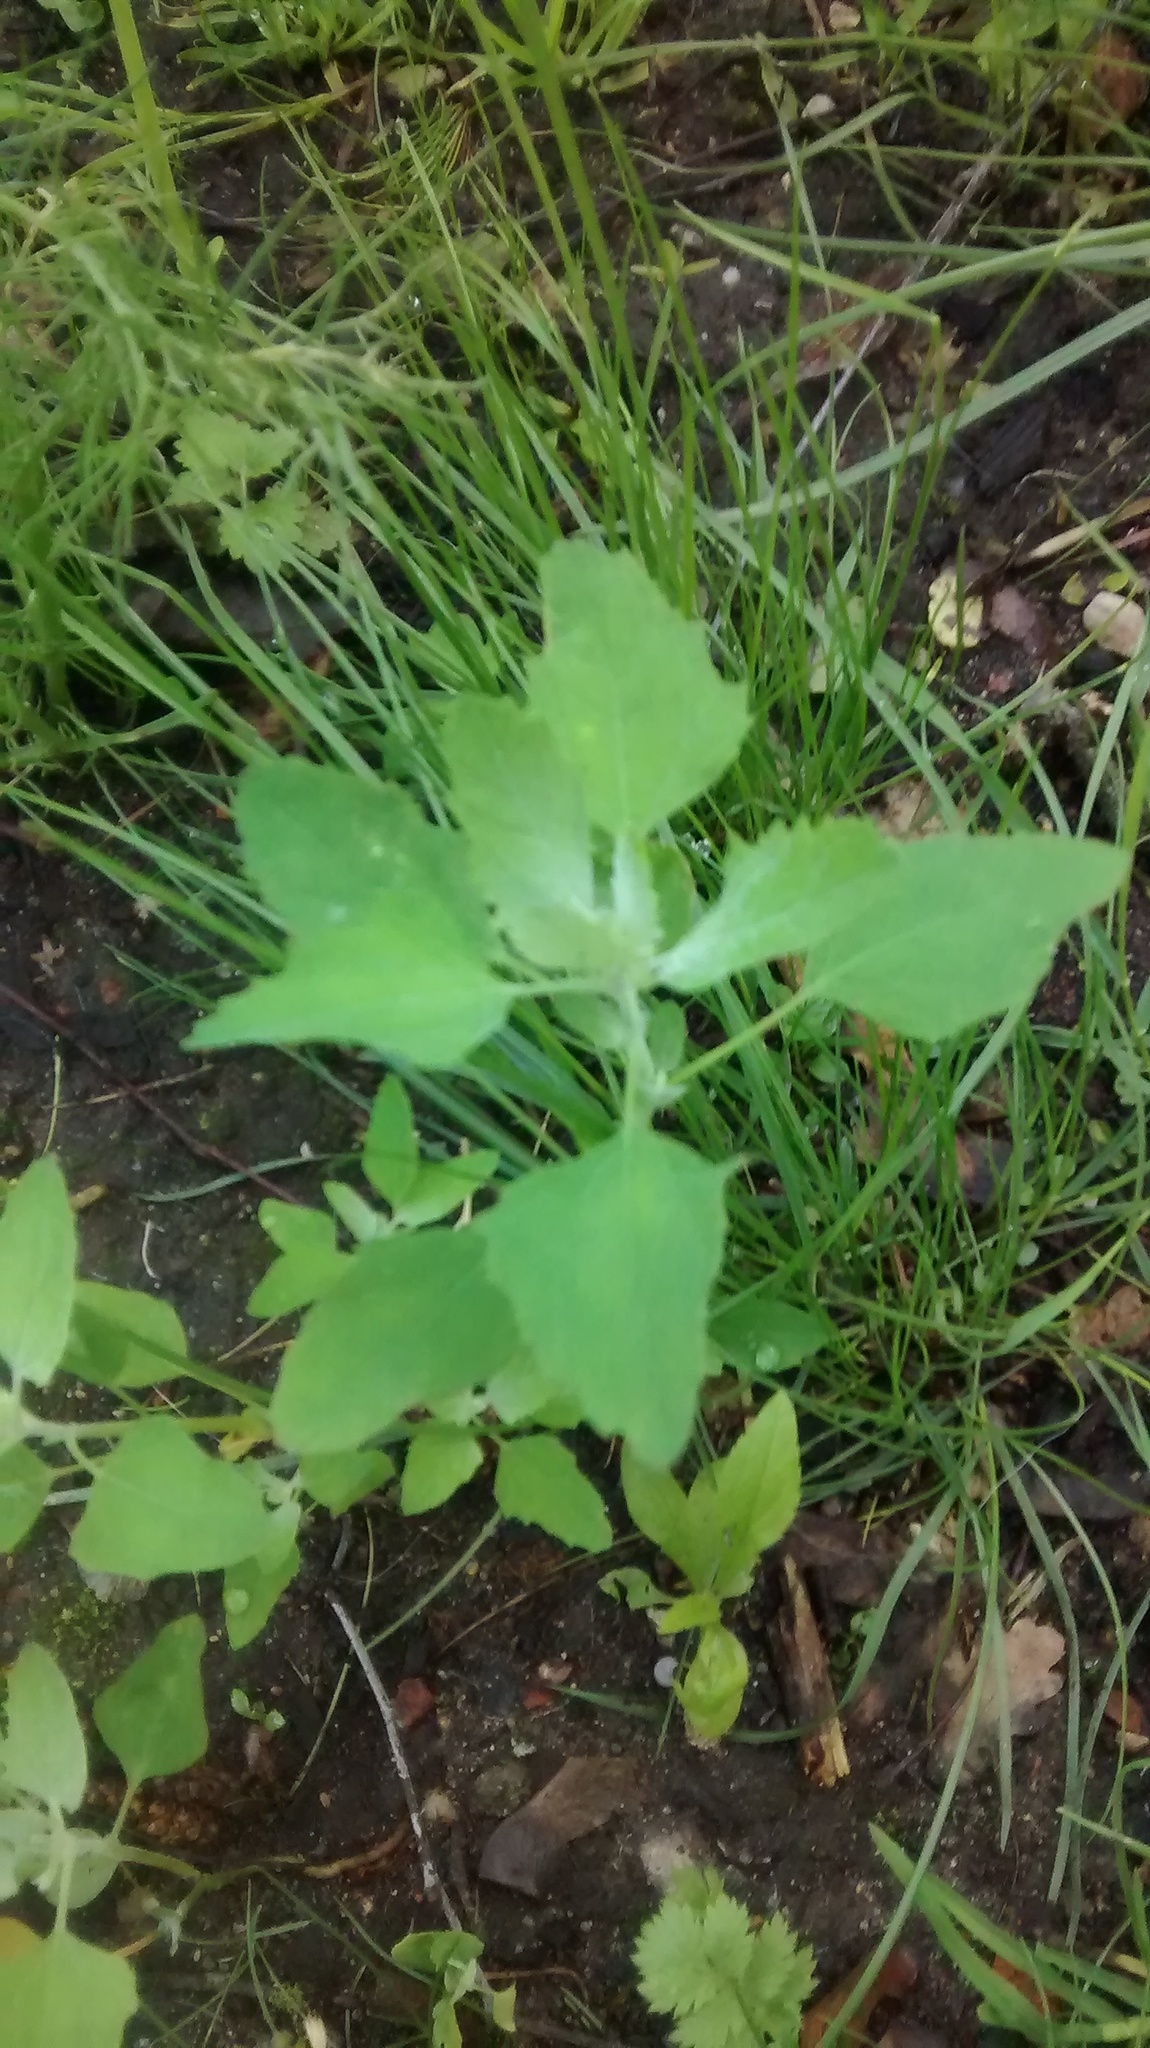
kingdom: Plantae
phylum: Tracheophyta
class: Magnoliopsida
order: Caryophyllales
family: Amaranthaceae
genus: Chenopodium
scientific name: Chenopodium album
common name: Fat-hen
